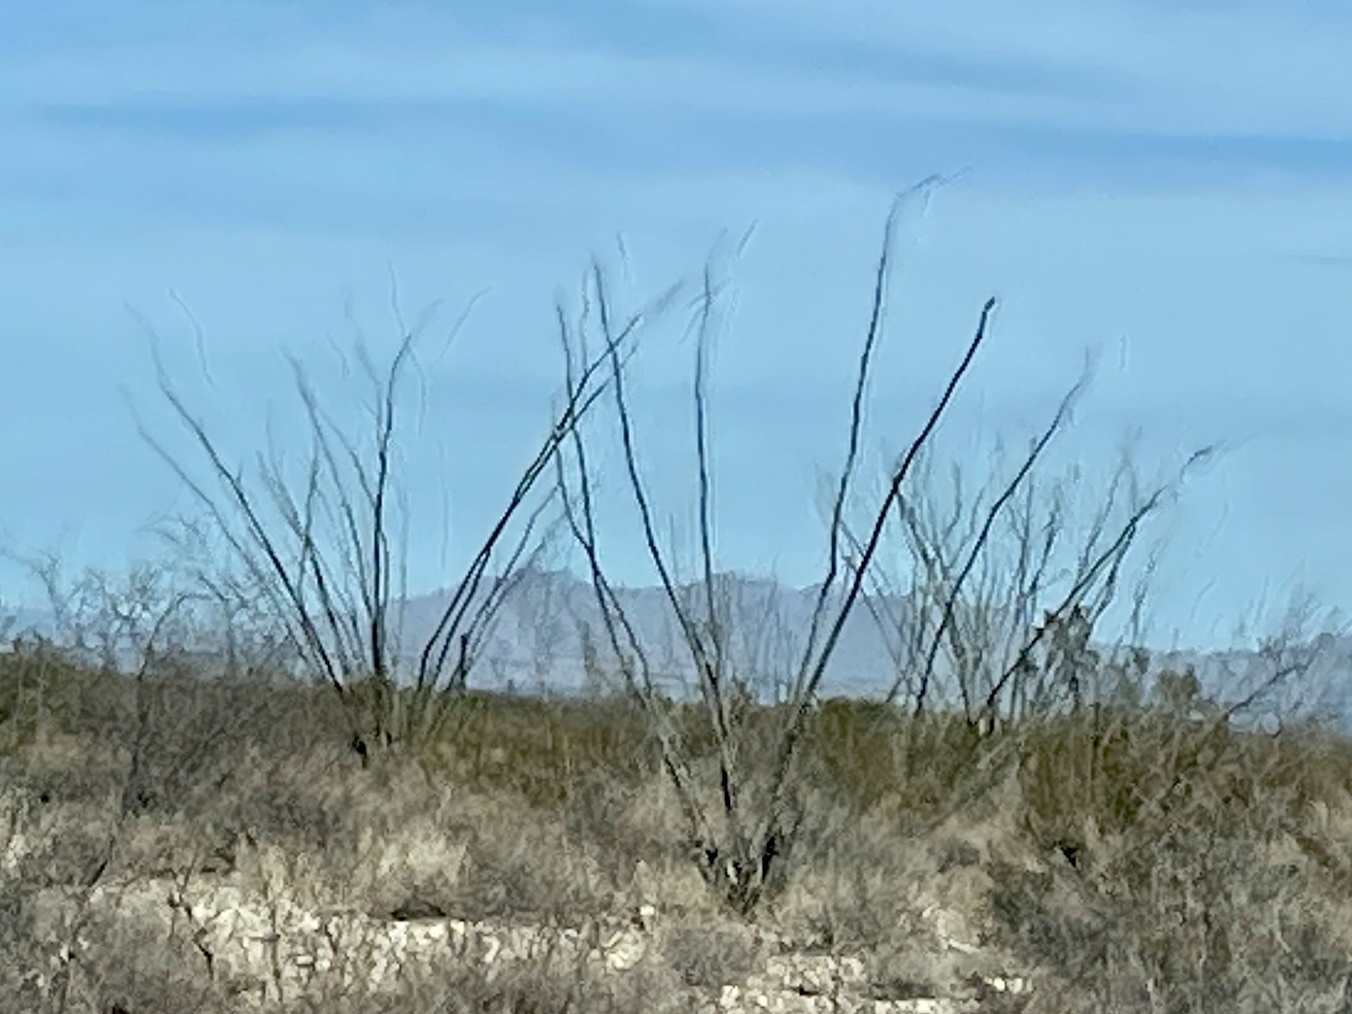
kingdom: Plantae
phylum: Tracheophyta
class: Magnoliopsida
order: Ericales
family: Fouquieriaceae
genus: Fouquieria
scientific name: Fouquieria splendens
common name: Vine-cactus
